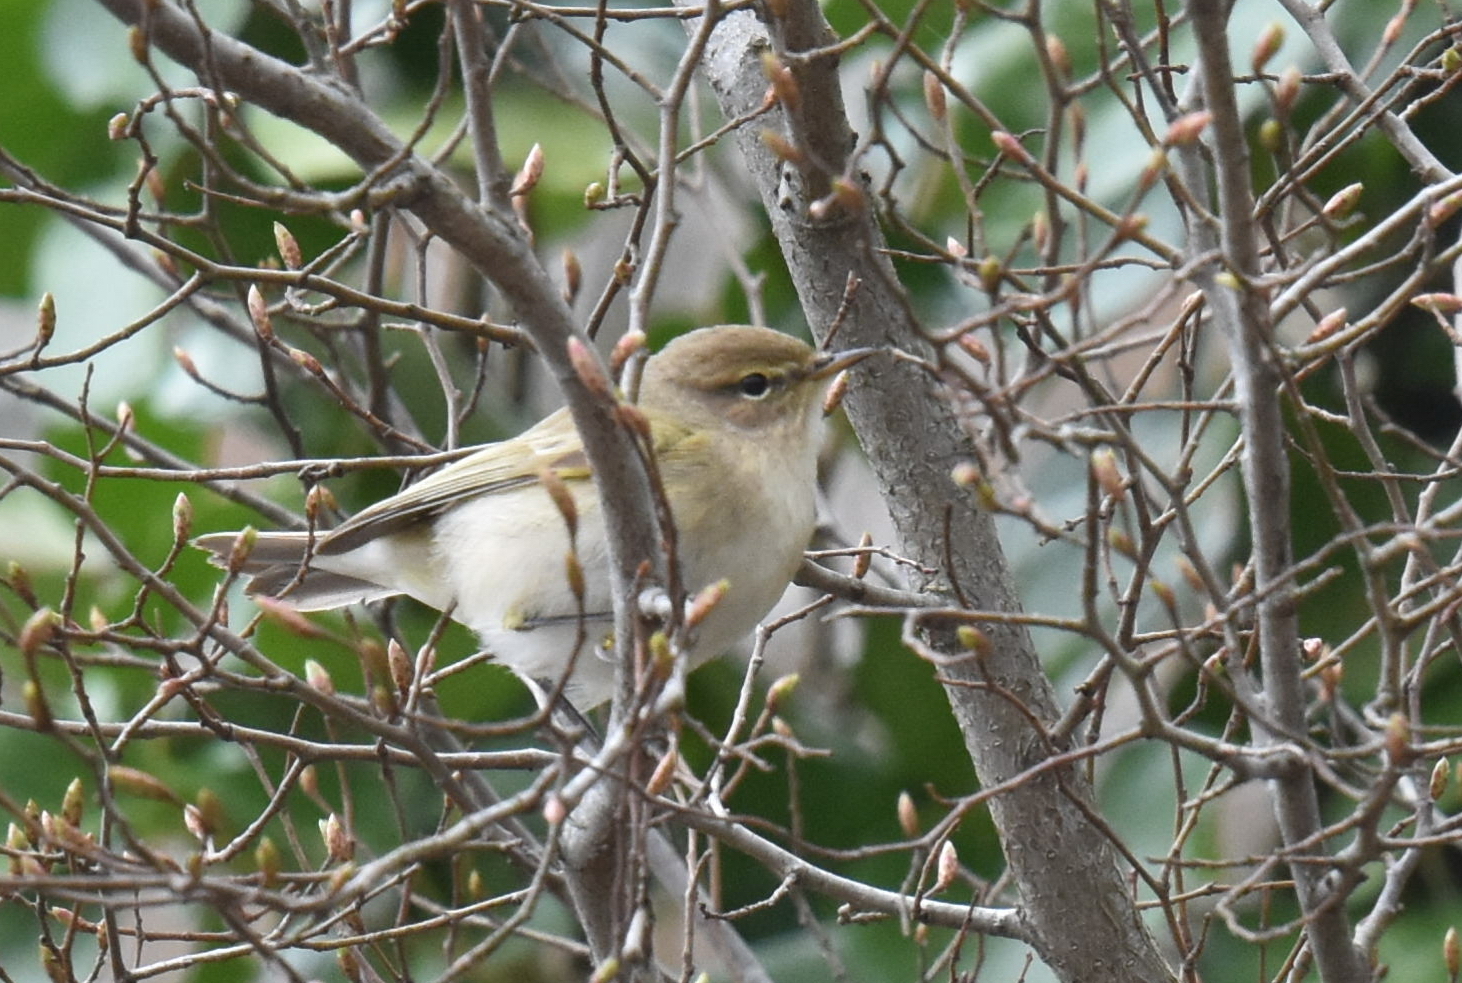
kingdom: Animalia
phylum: Chordata
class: Aves
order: Passeriformes
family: Phylloscopidae
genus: Phylloscopus
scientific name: Phylloscopus collybita
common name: Common chiffchaff
